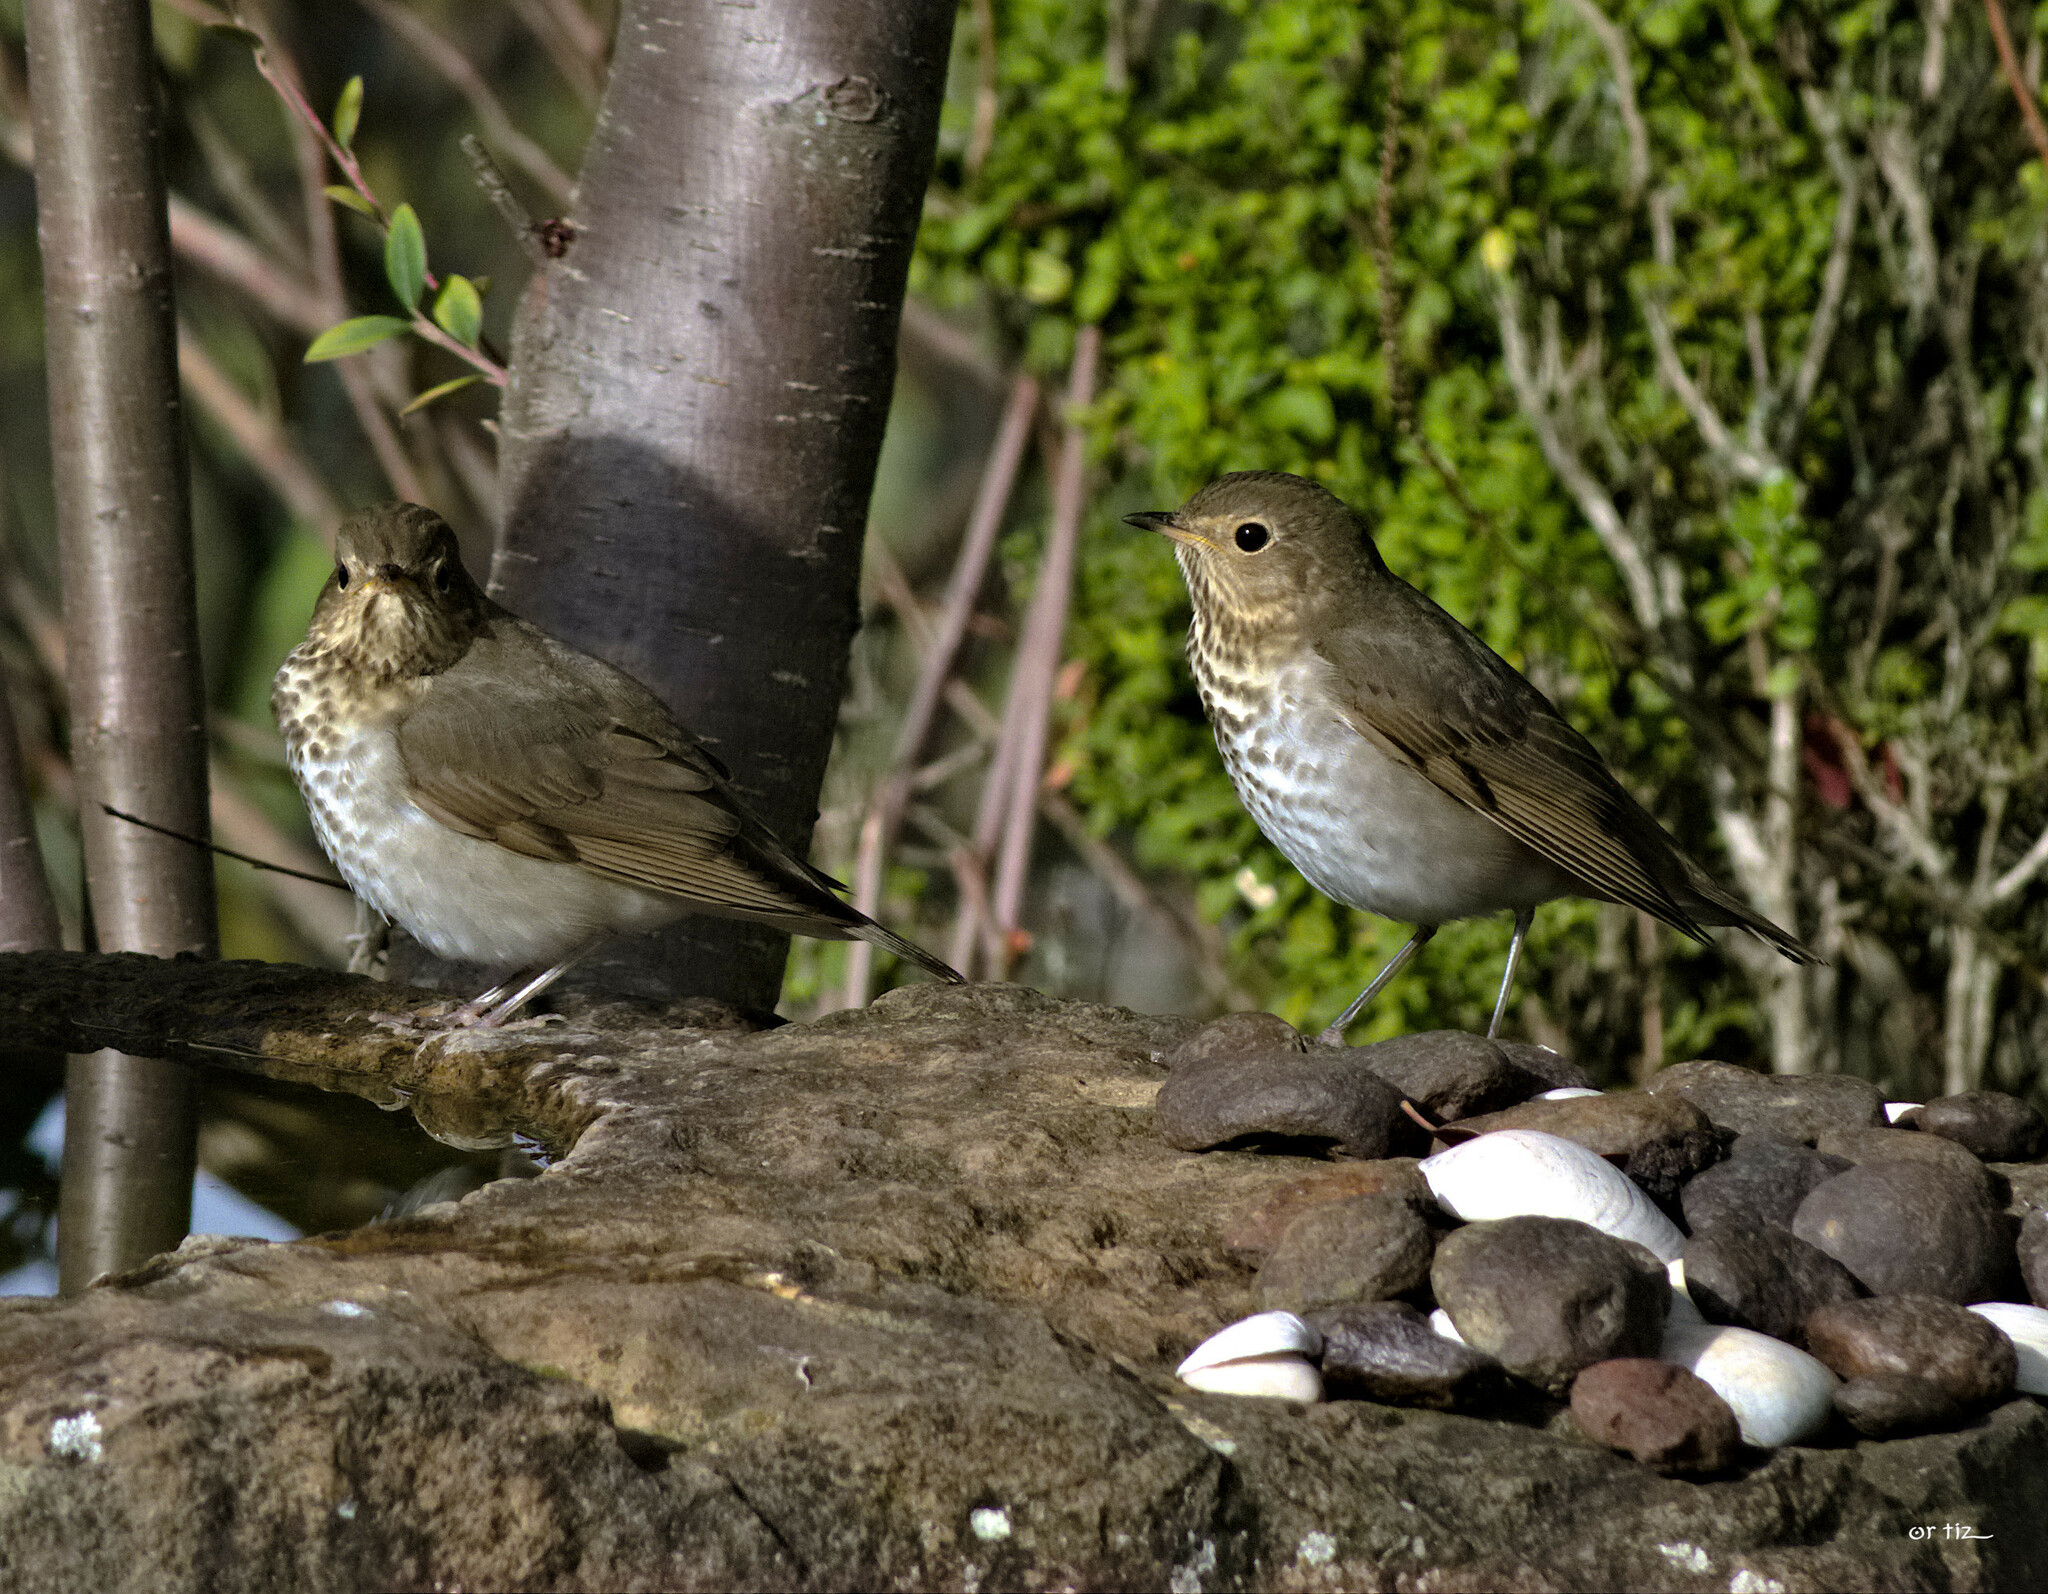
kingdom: Animalia
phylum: Chordata
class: Aves
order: Passeriformes
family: Turdidae
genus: Catharus
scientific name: Catharus ustulatus
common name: Swainson's thrush
